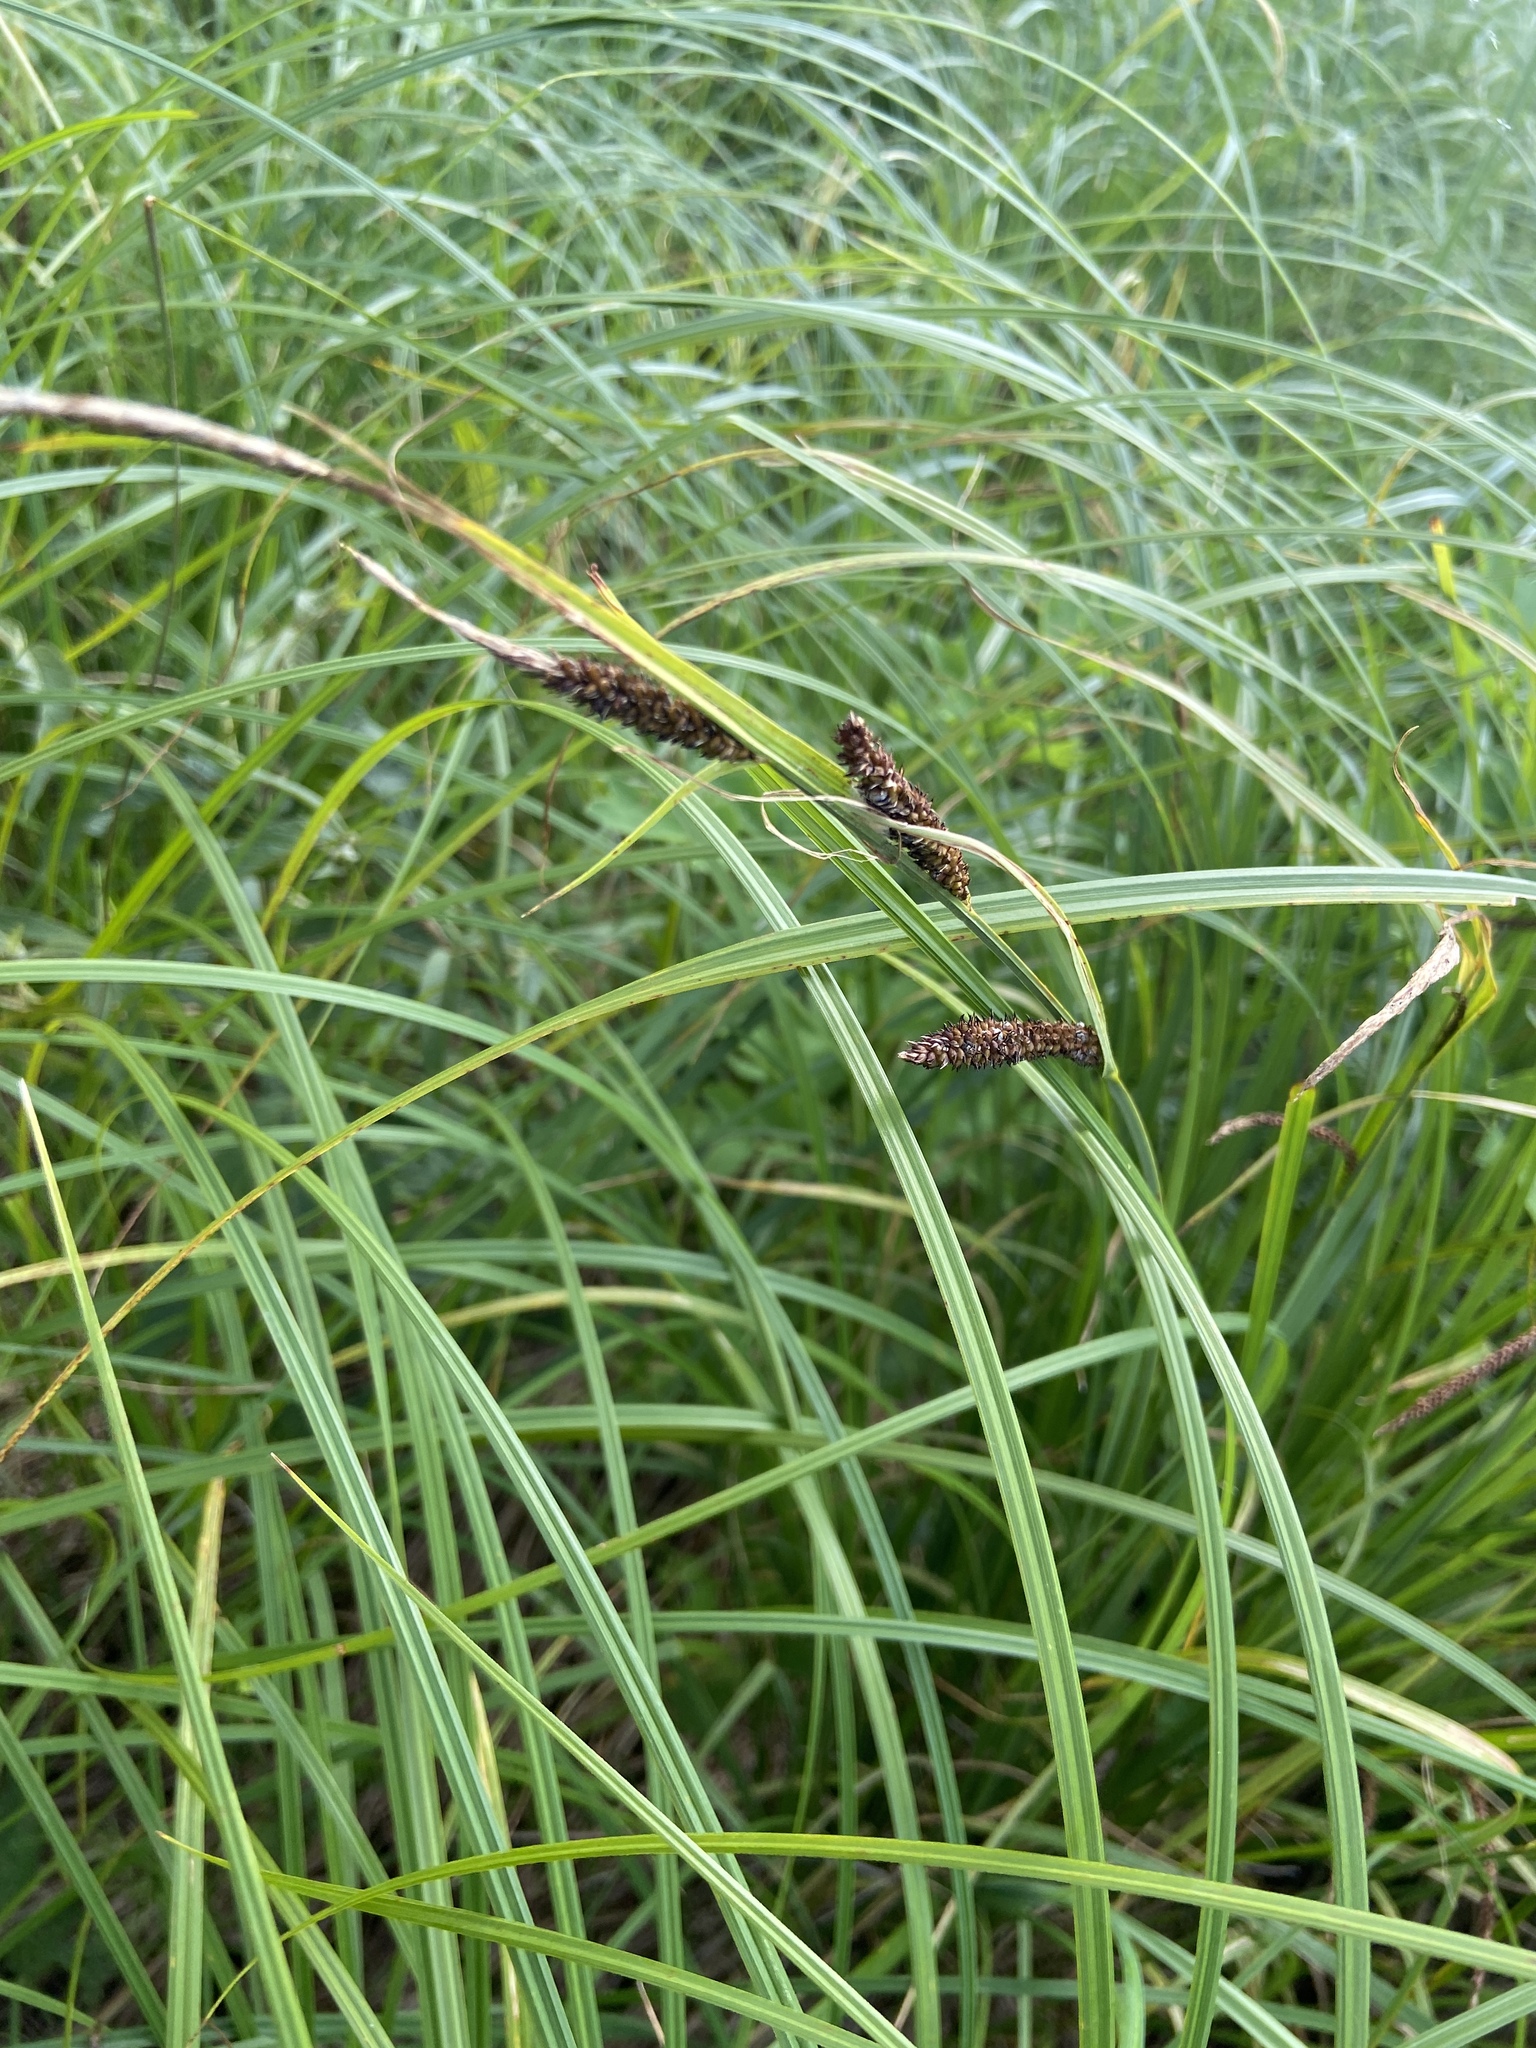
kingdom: Plantae
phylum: Tracheophyta
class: Liliopsida
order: Poales
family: Cyperaceae
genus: Carex
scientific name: Carex acuta
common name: Slender tufted-sedge
